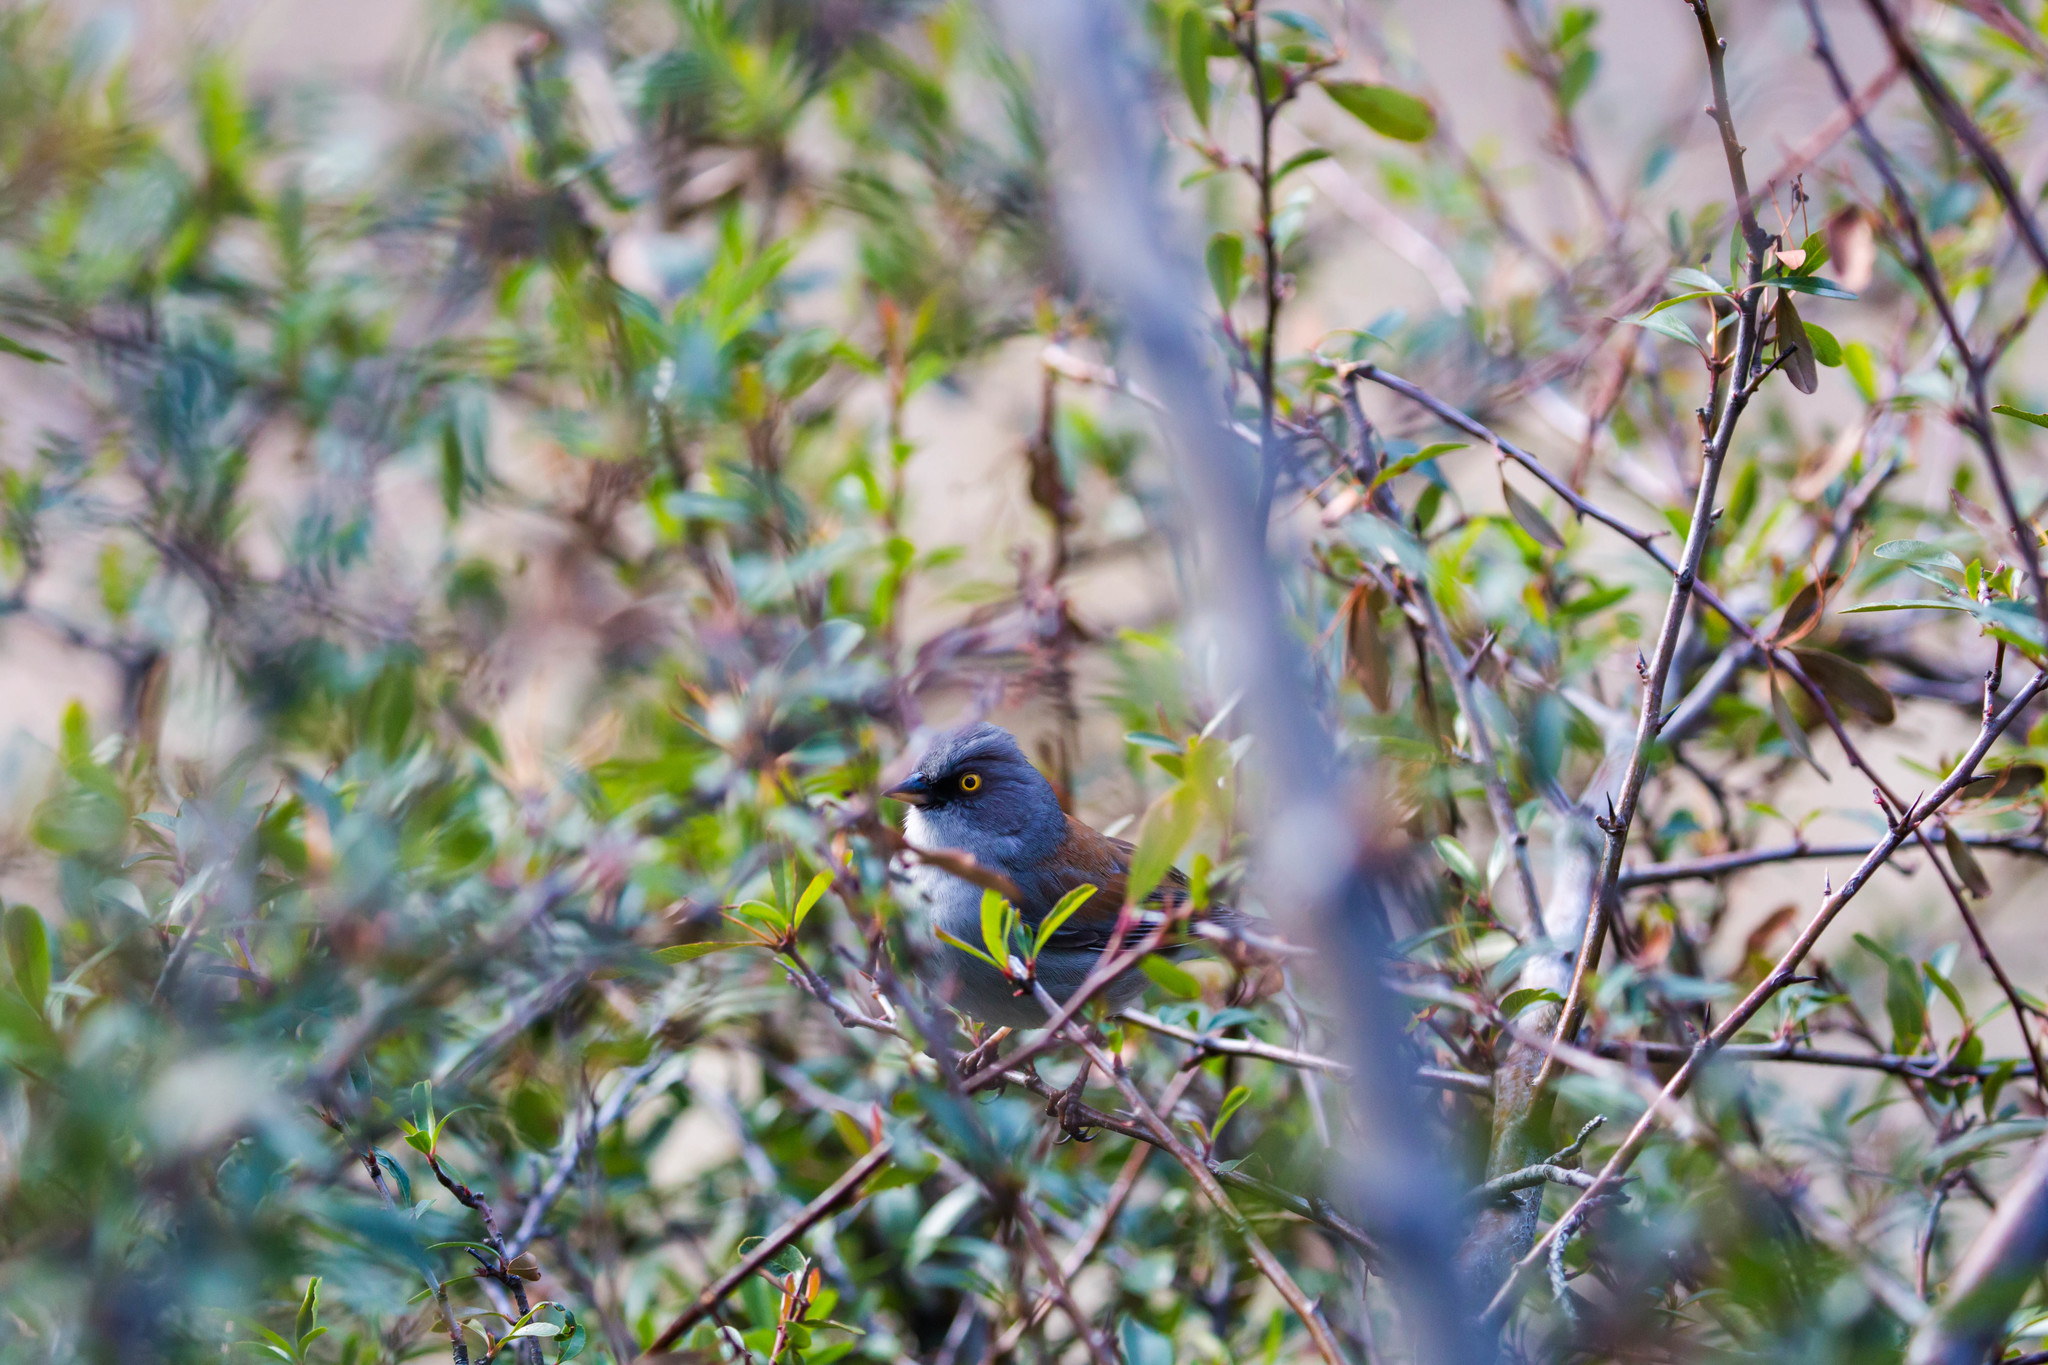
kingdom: Animalia
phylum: Chordata
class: Aves
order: Passeriformes
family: Passerellidae
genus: Junco
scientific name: Junco phaeonotus
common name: Yellow-eyed junco
